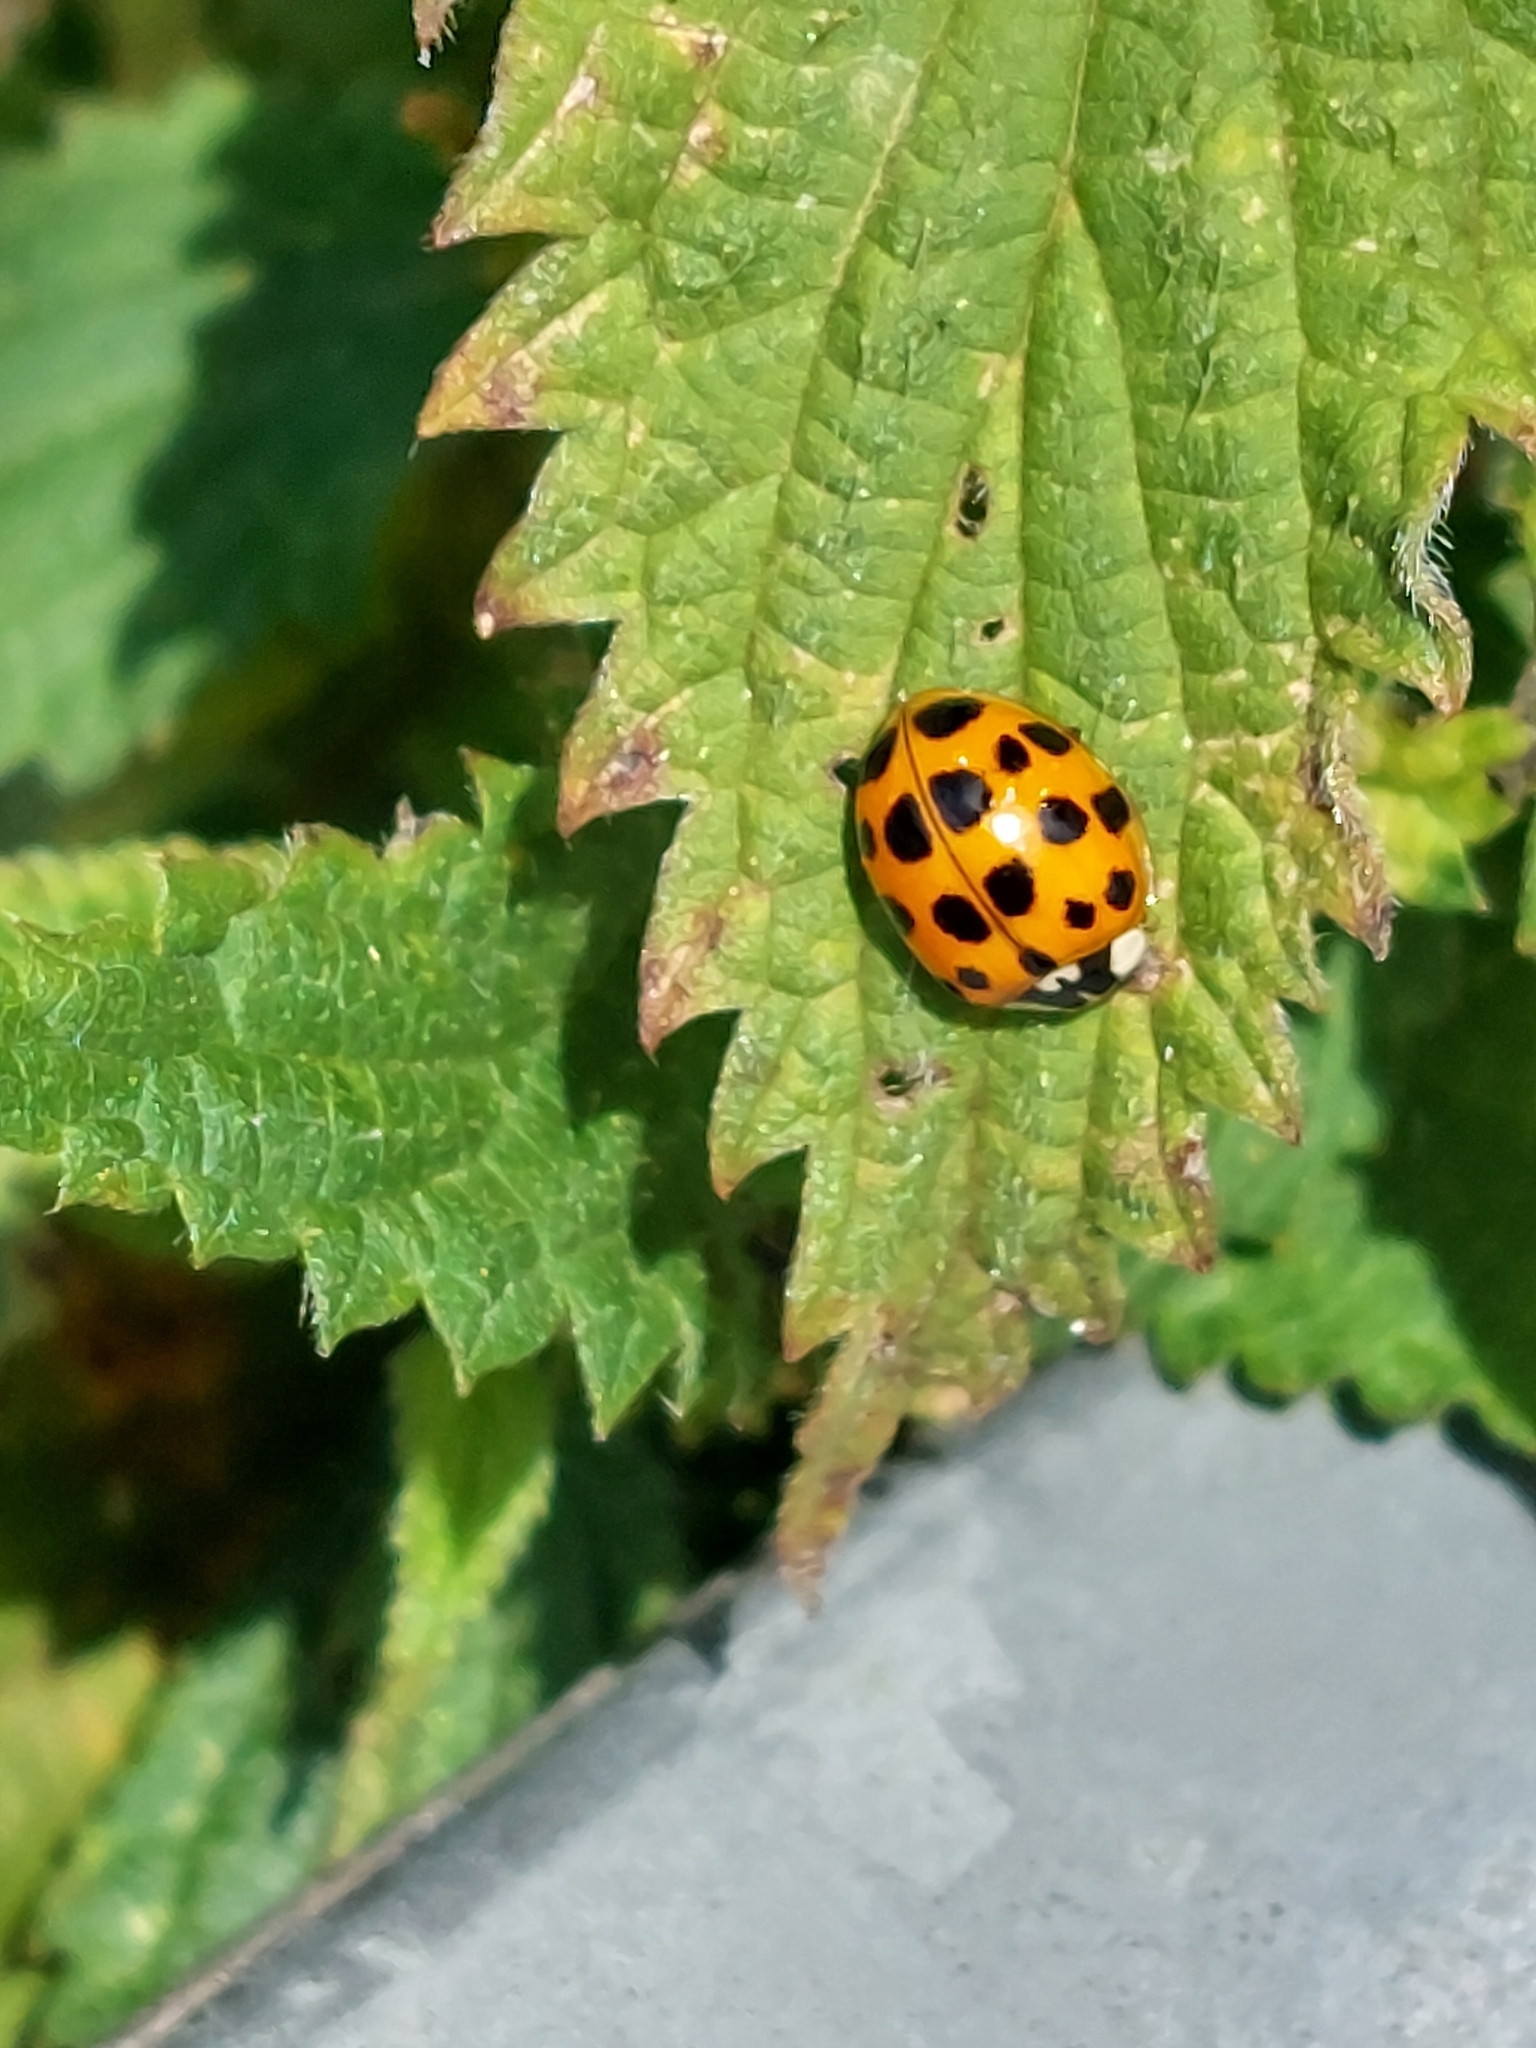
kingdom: Animalia
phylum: Arthropoda
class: Insecta
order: Coleoptera
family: Coccinellidae
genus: Harmonia
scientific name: Harmonia axyridis
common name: Harlequin ladybird
